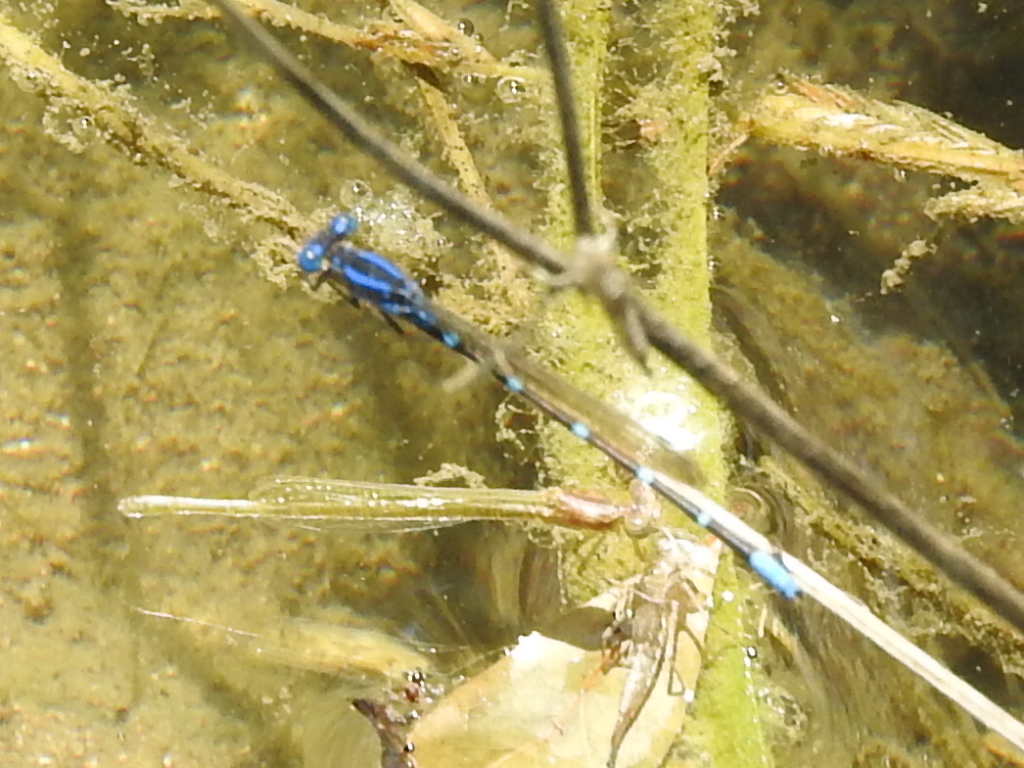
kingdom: Animalia
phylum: Arthropoda
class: Insecta
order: Odonata
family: Coenagrionidae
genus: Argia
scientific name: Argia sedula
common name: Blue-ringed dancer
